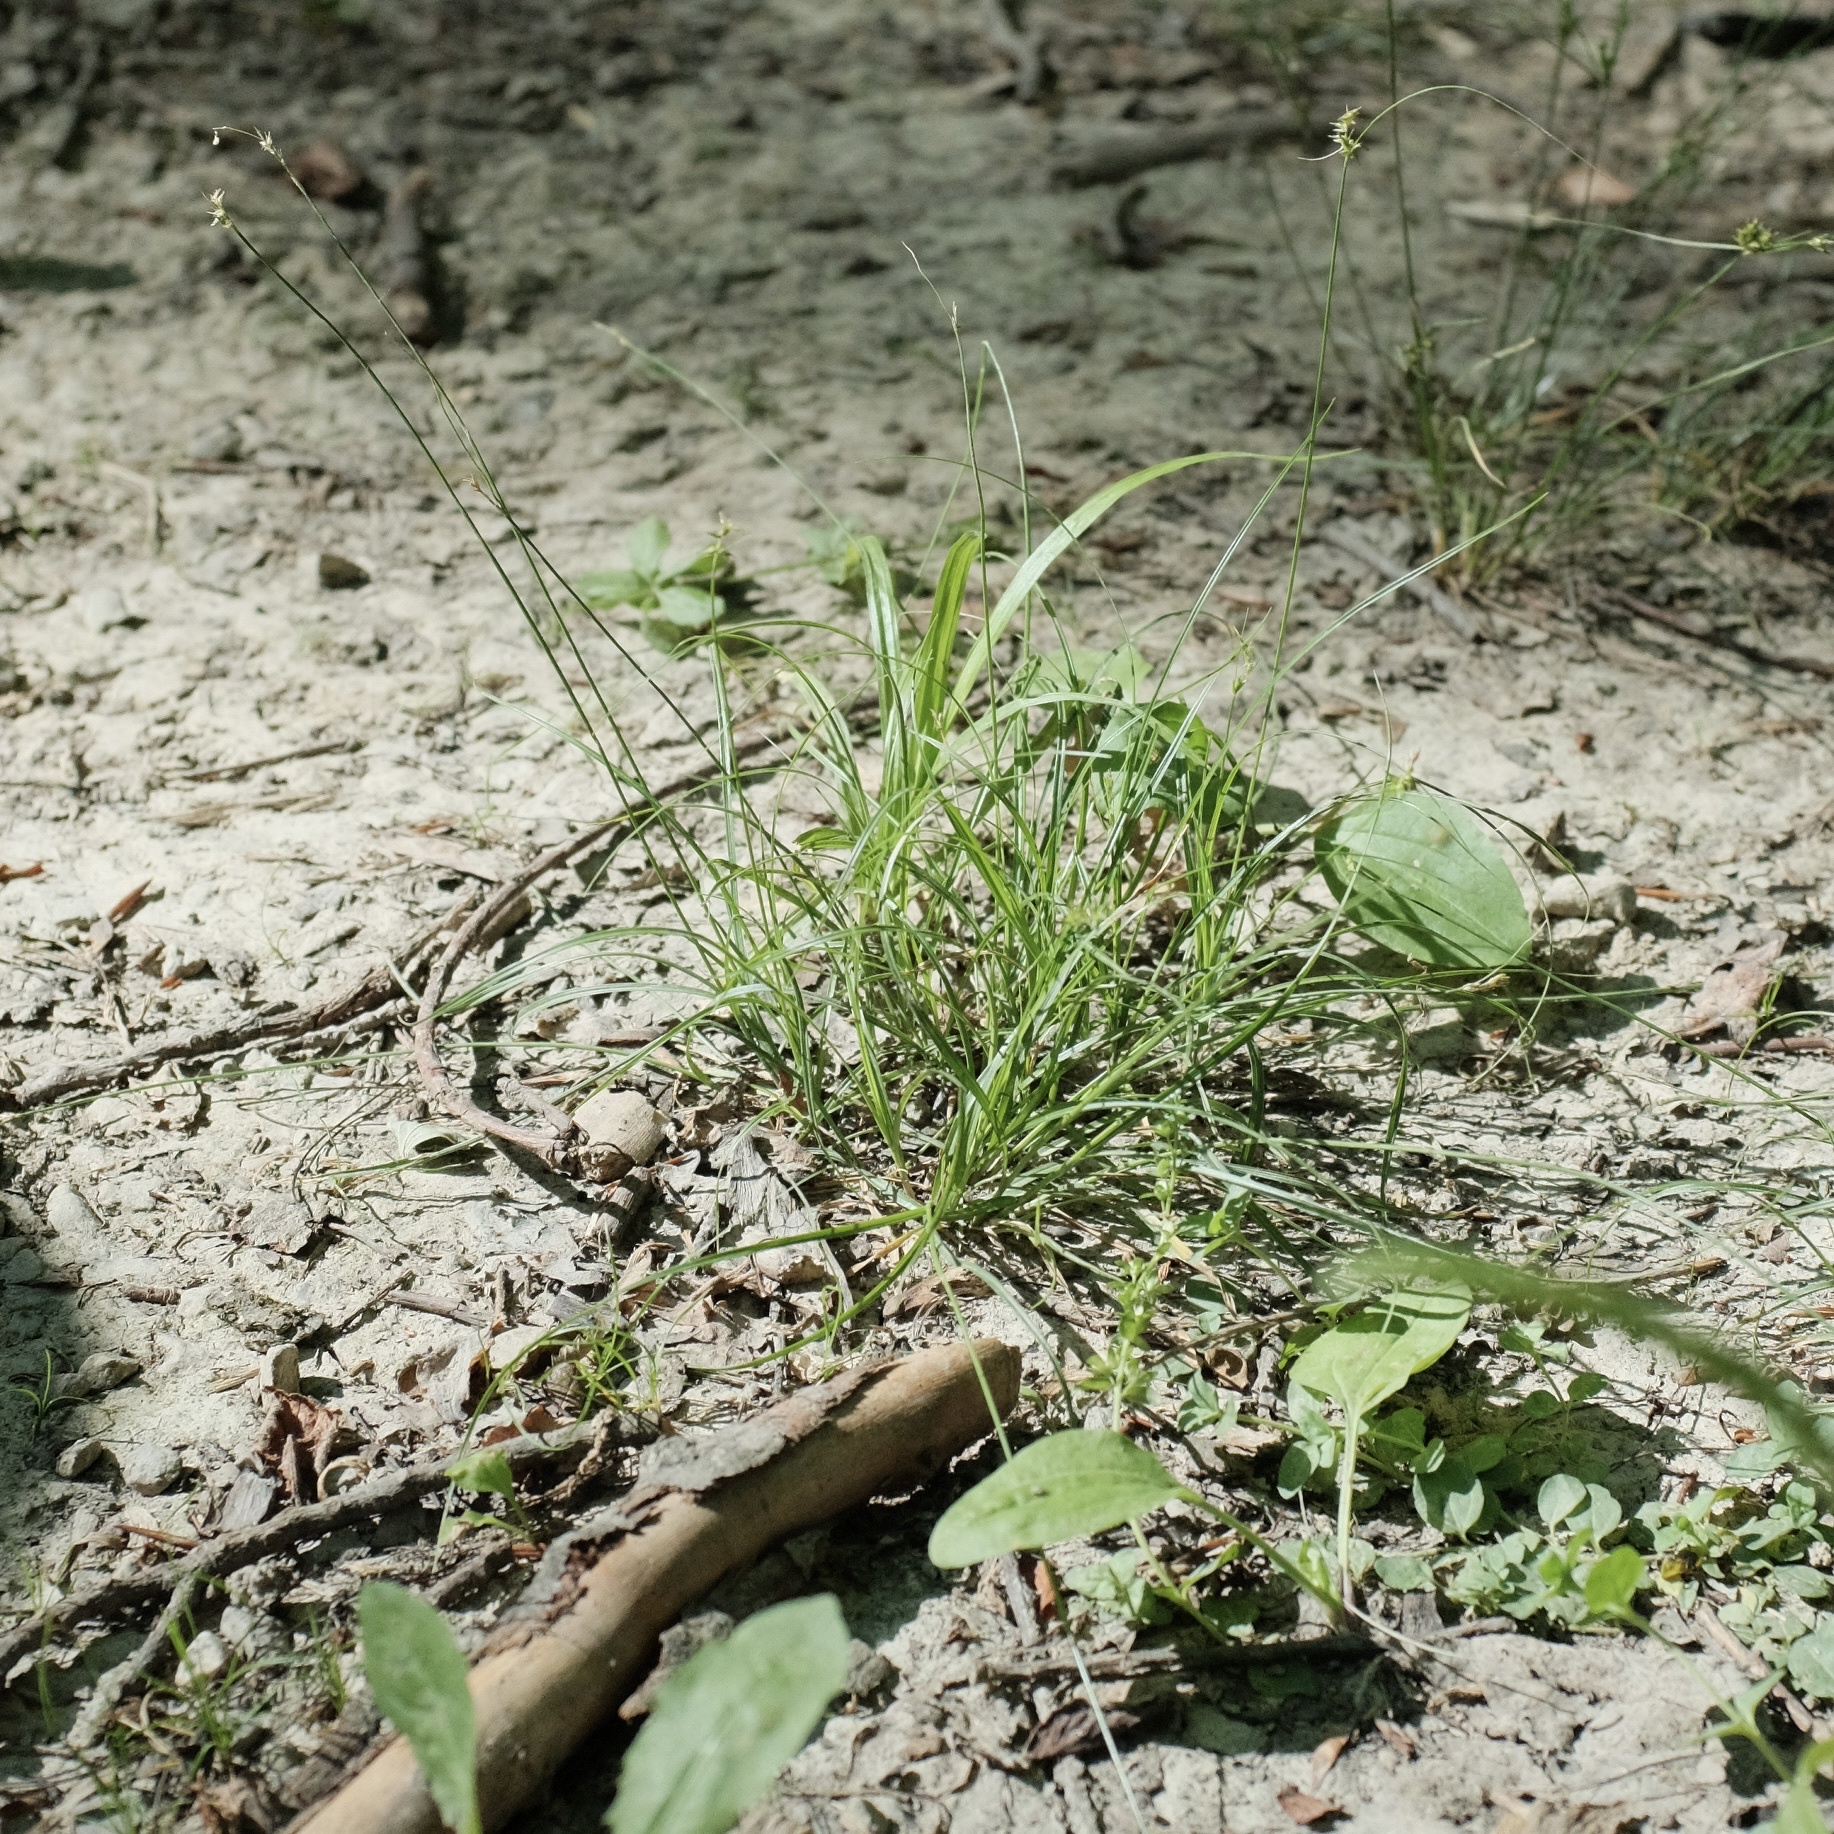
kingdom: Plantae
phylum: Tracheophyta
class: Liliopsida
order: Poales
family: Cyperaceae
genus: Carex
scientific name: Carex texensis
